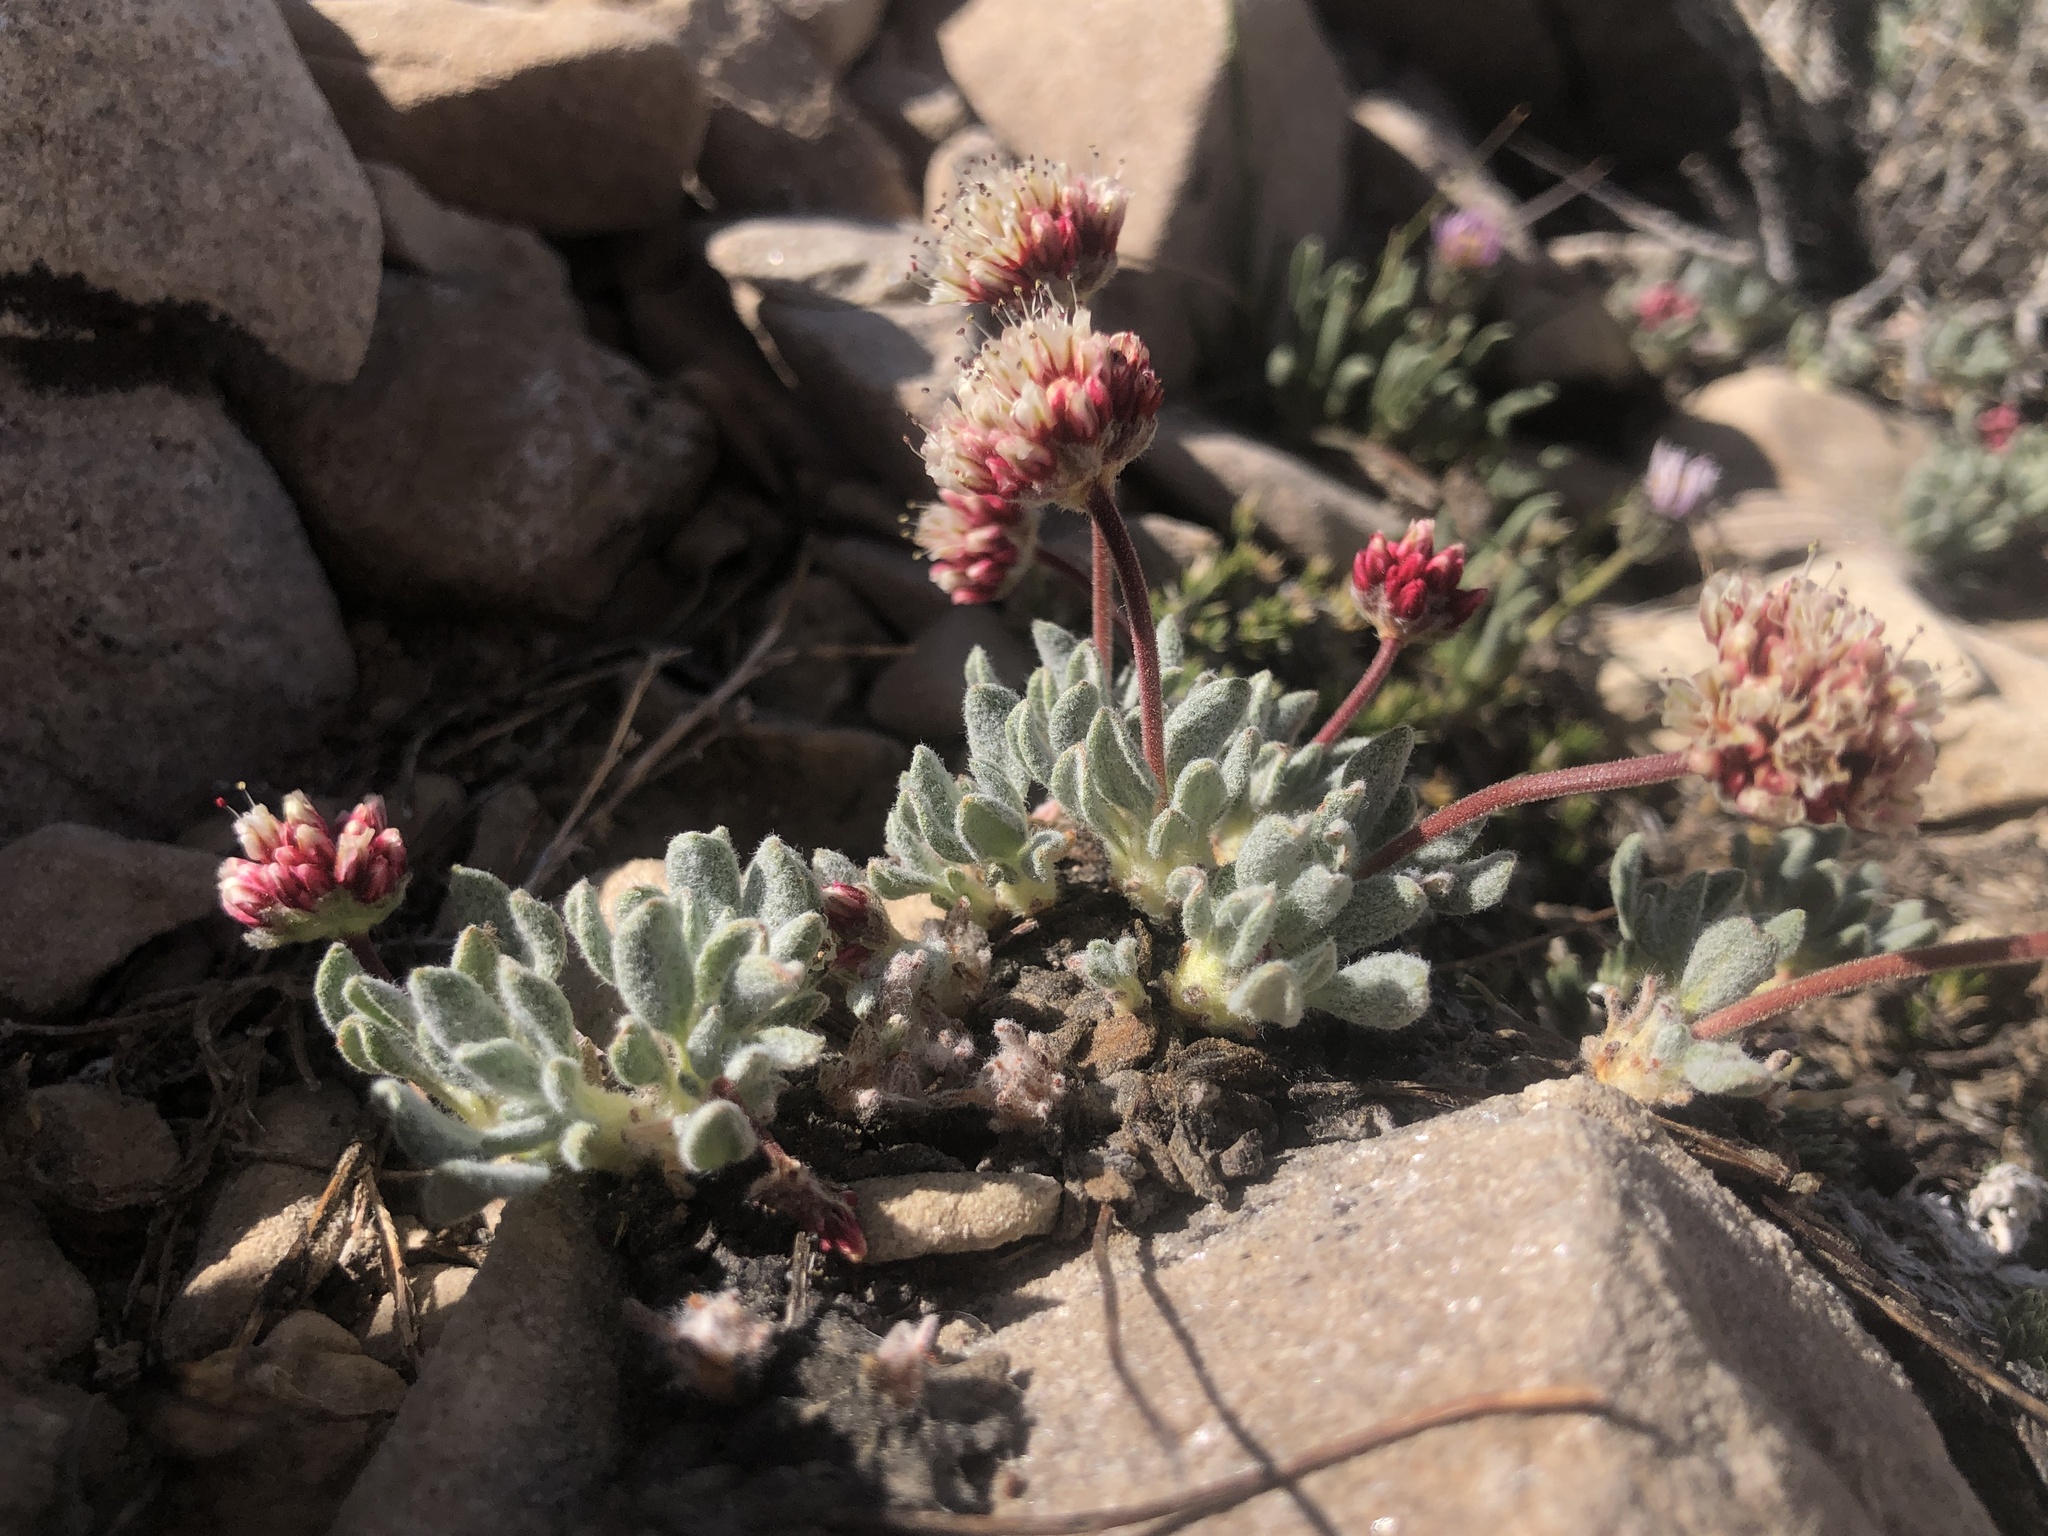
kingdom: Plantae
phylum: Tracheophyta
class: Magnoliopsida
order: Caryophyllales
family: Polygonaceae
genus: Eriogonum
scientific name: Eriogonum gracilipes
